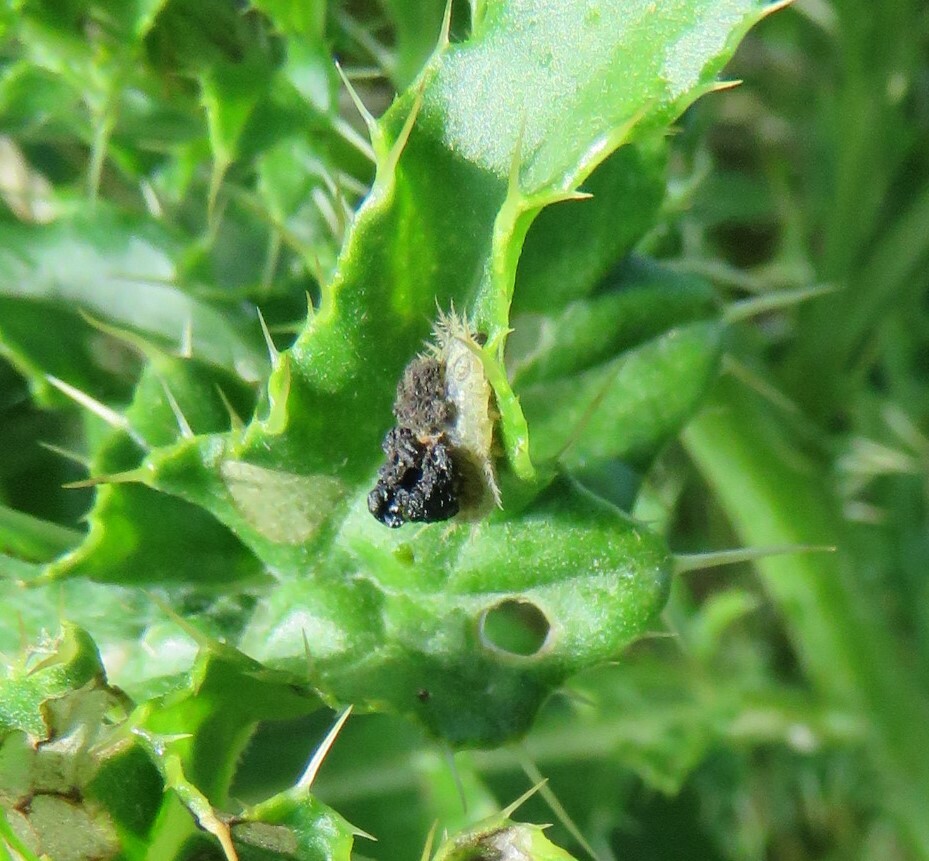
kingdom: Animalia
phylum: Arthropoda
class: Insecta
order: Coleoptera
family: Chrysomelidae
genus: Cassida
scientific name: Cassida rubiginosa
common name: Thistle tortoise beetle
